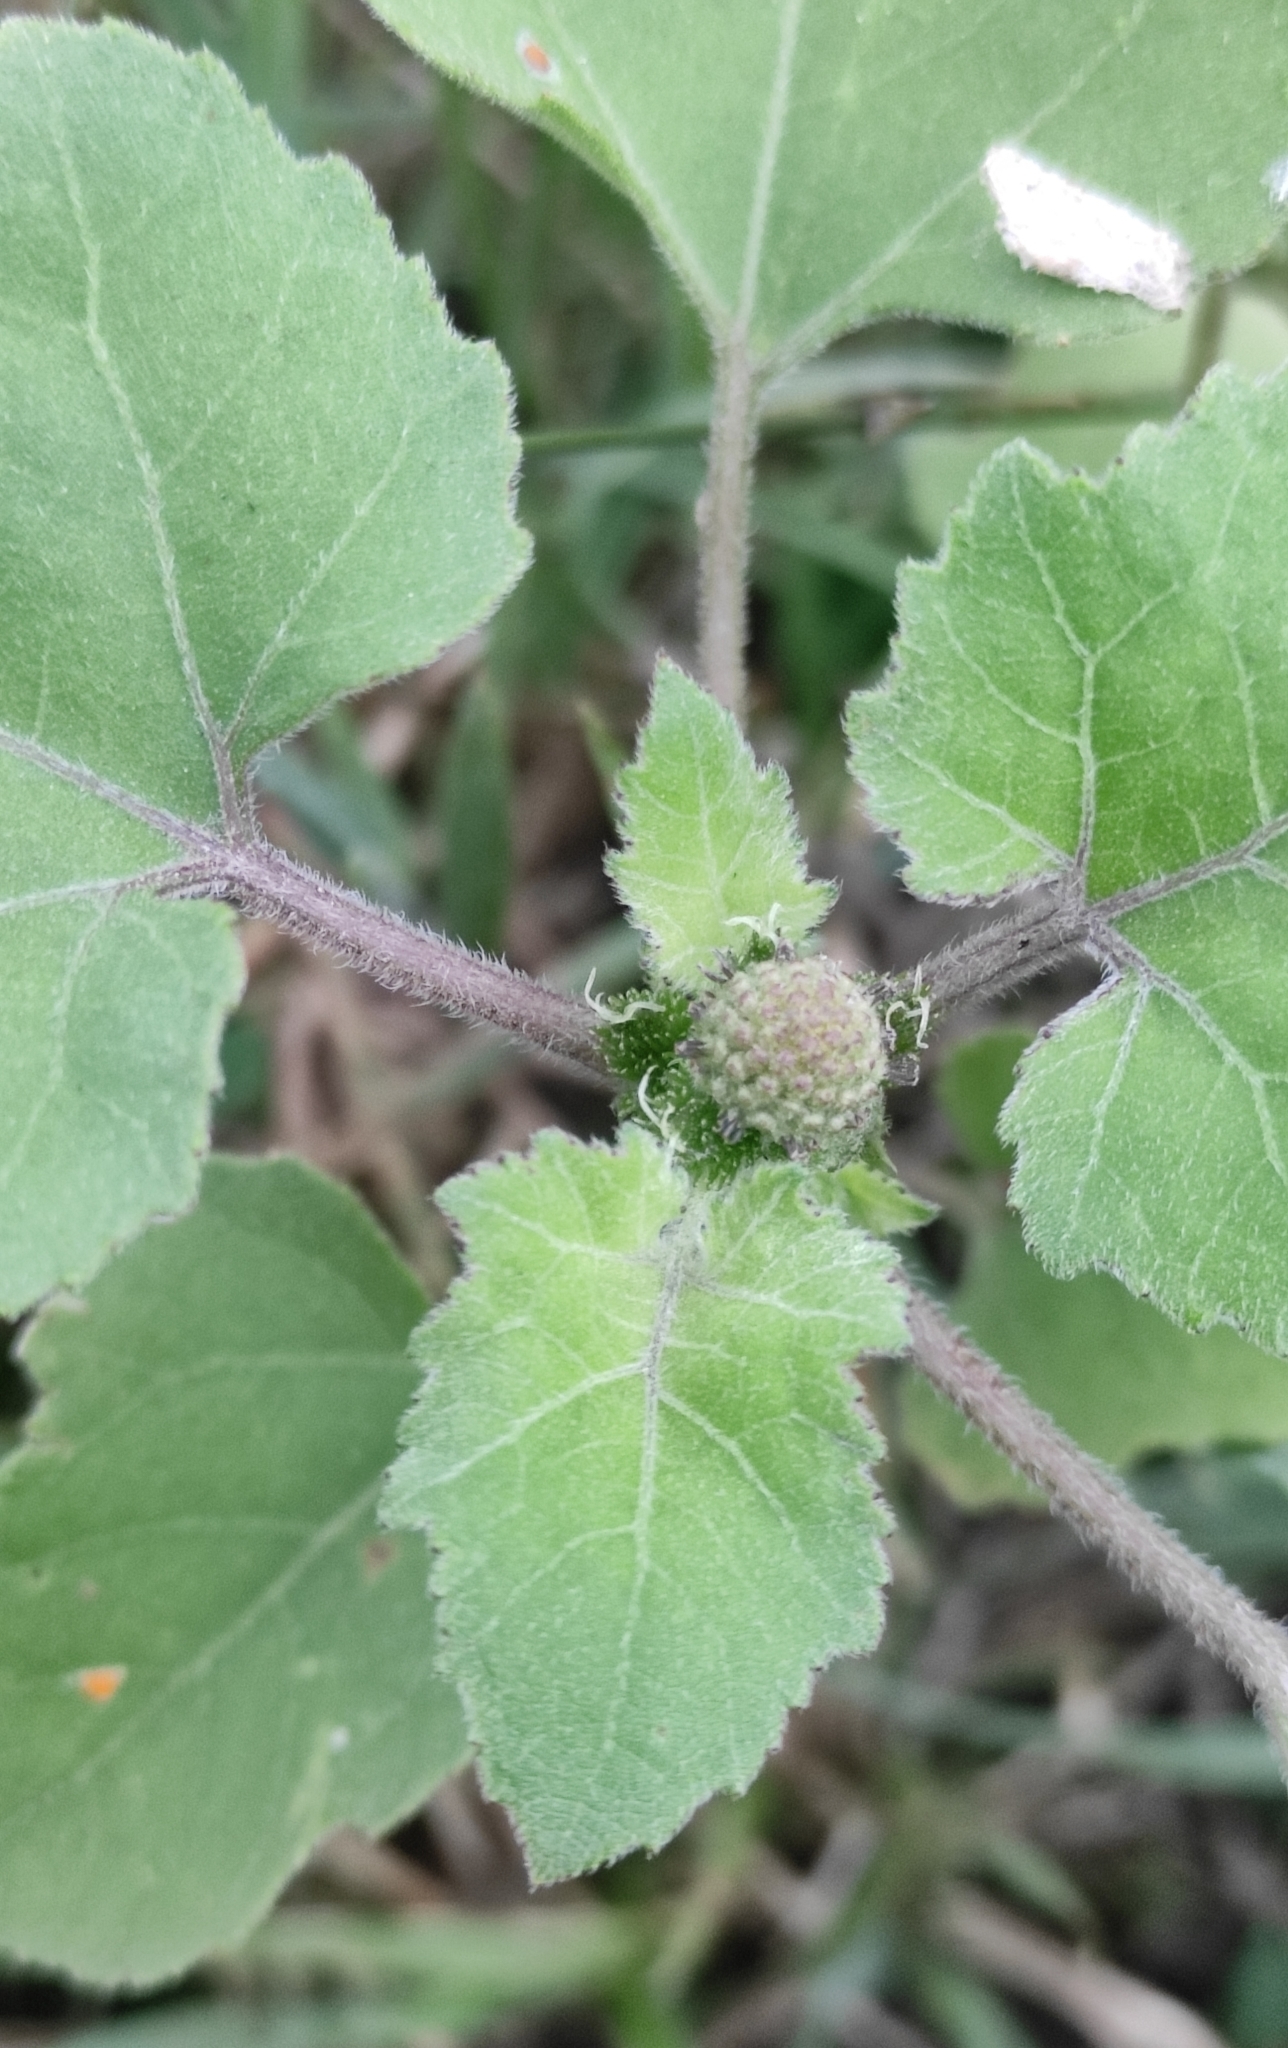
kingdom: Plantae
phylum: Tracheophyta
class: Magnoliopsida
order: Asterales
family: Asteraceae
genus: Xanthium
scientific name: Xanthium strumarium
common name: Rough cocklebur
